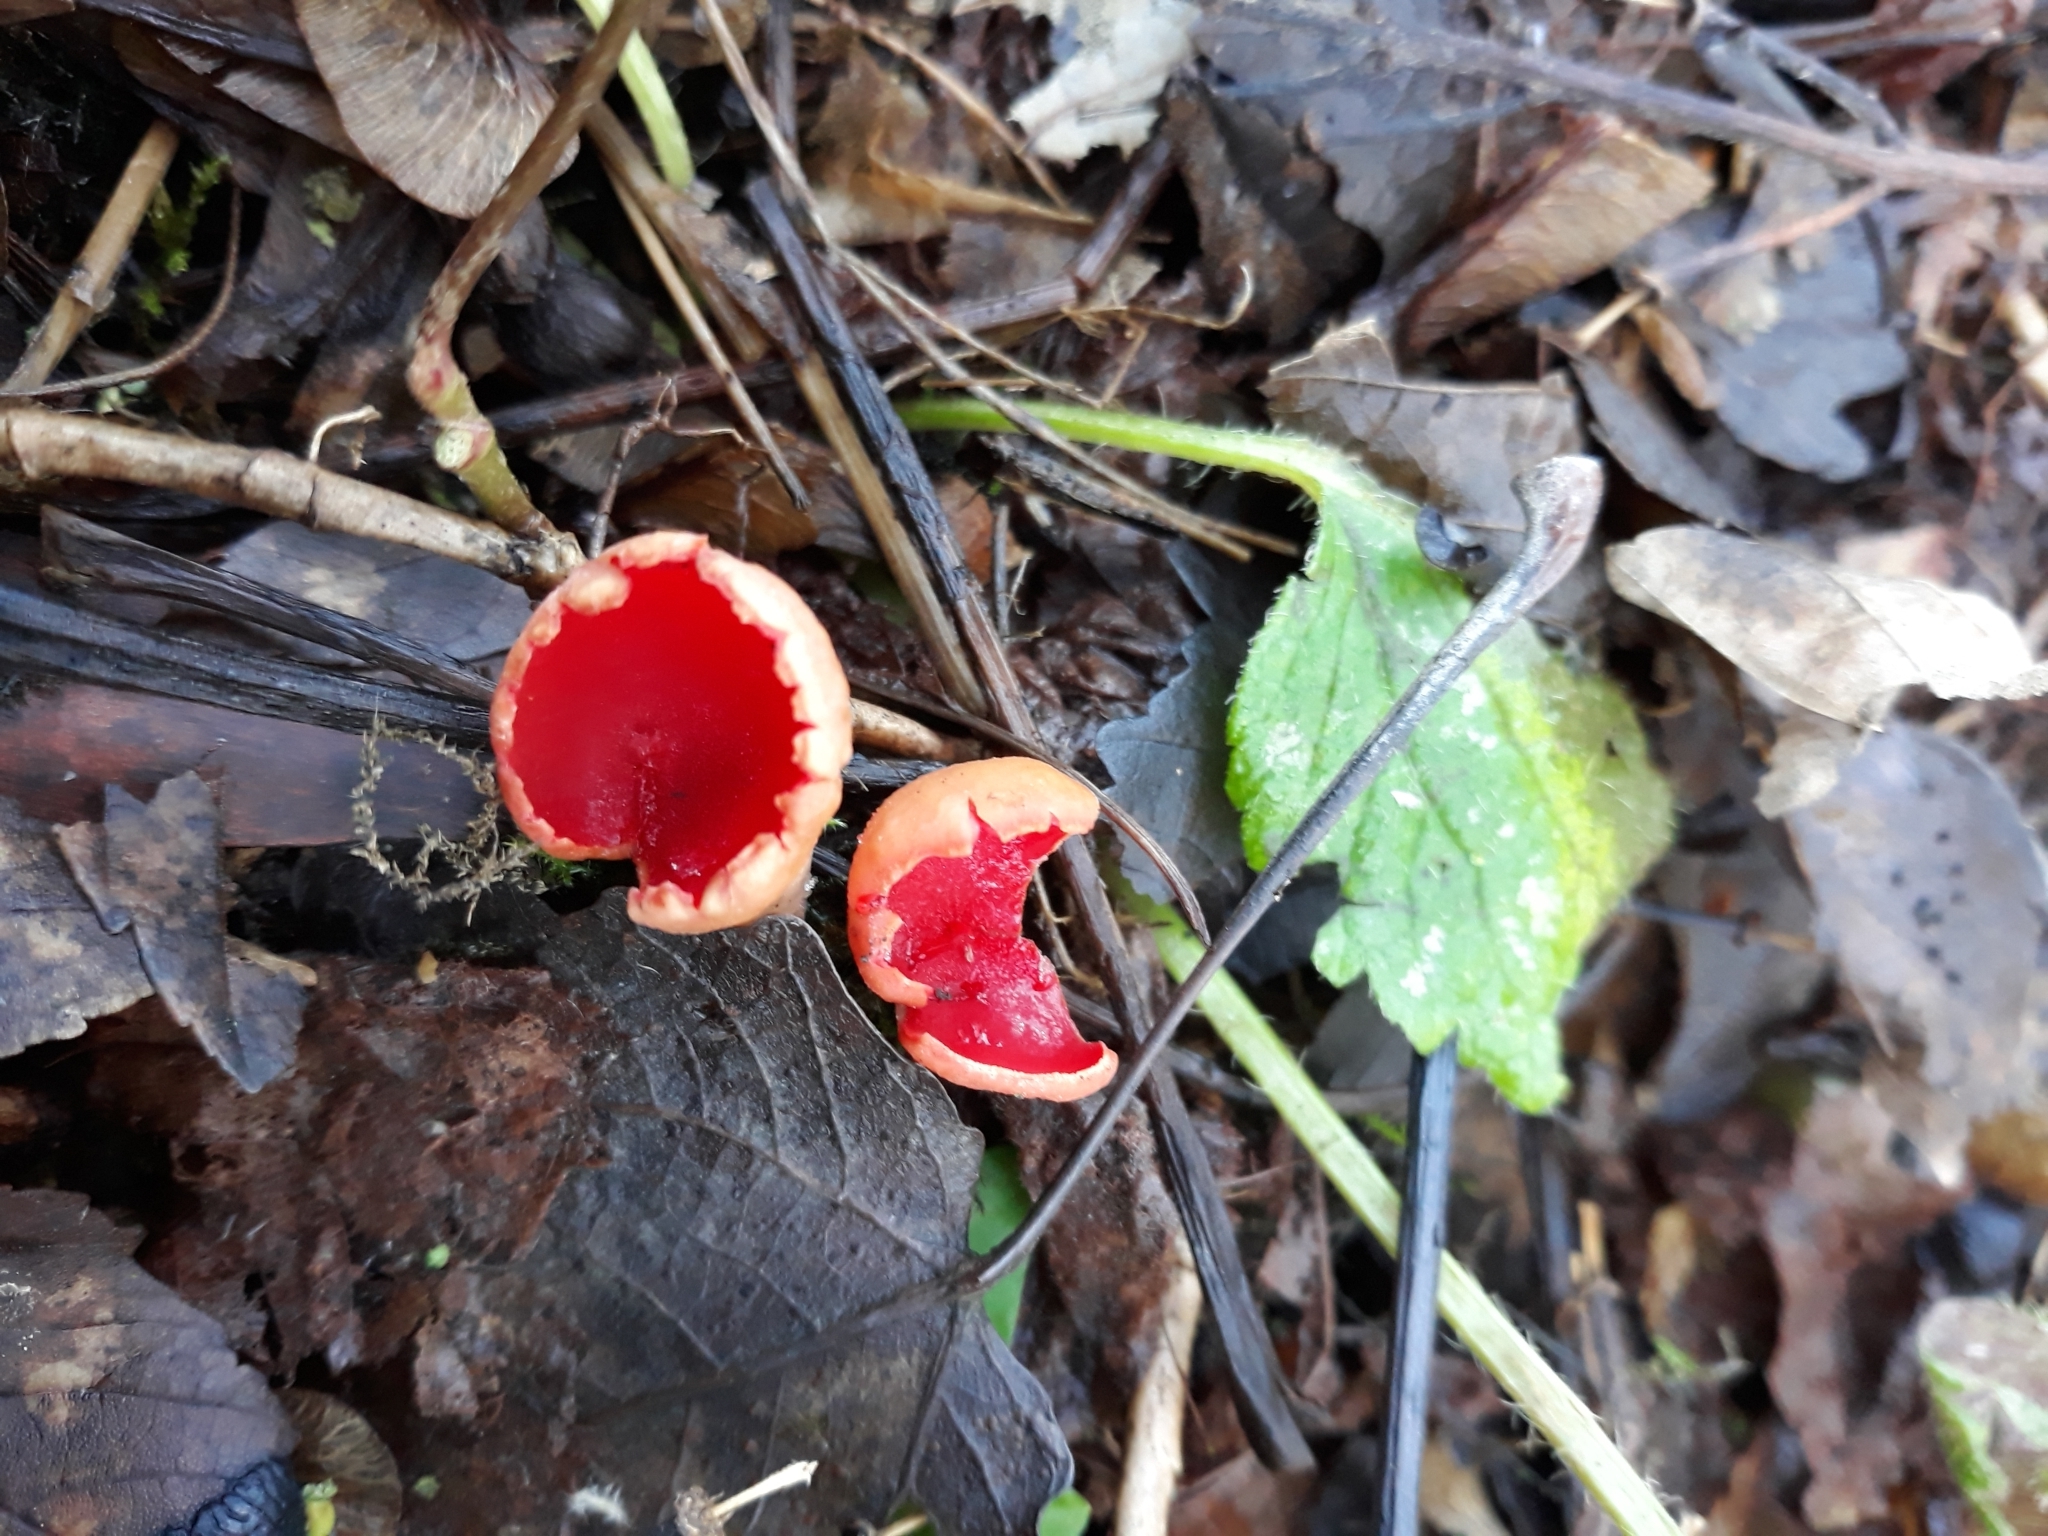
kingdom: Fungi
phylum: Ascomycota
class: Pezizomycetes
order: Pezizales
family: Sarcoscyphaceae
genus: Sarcoscypha
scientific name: Sarcoscypha
